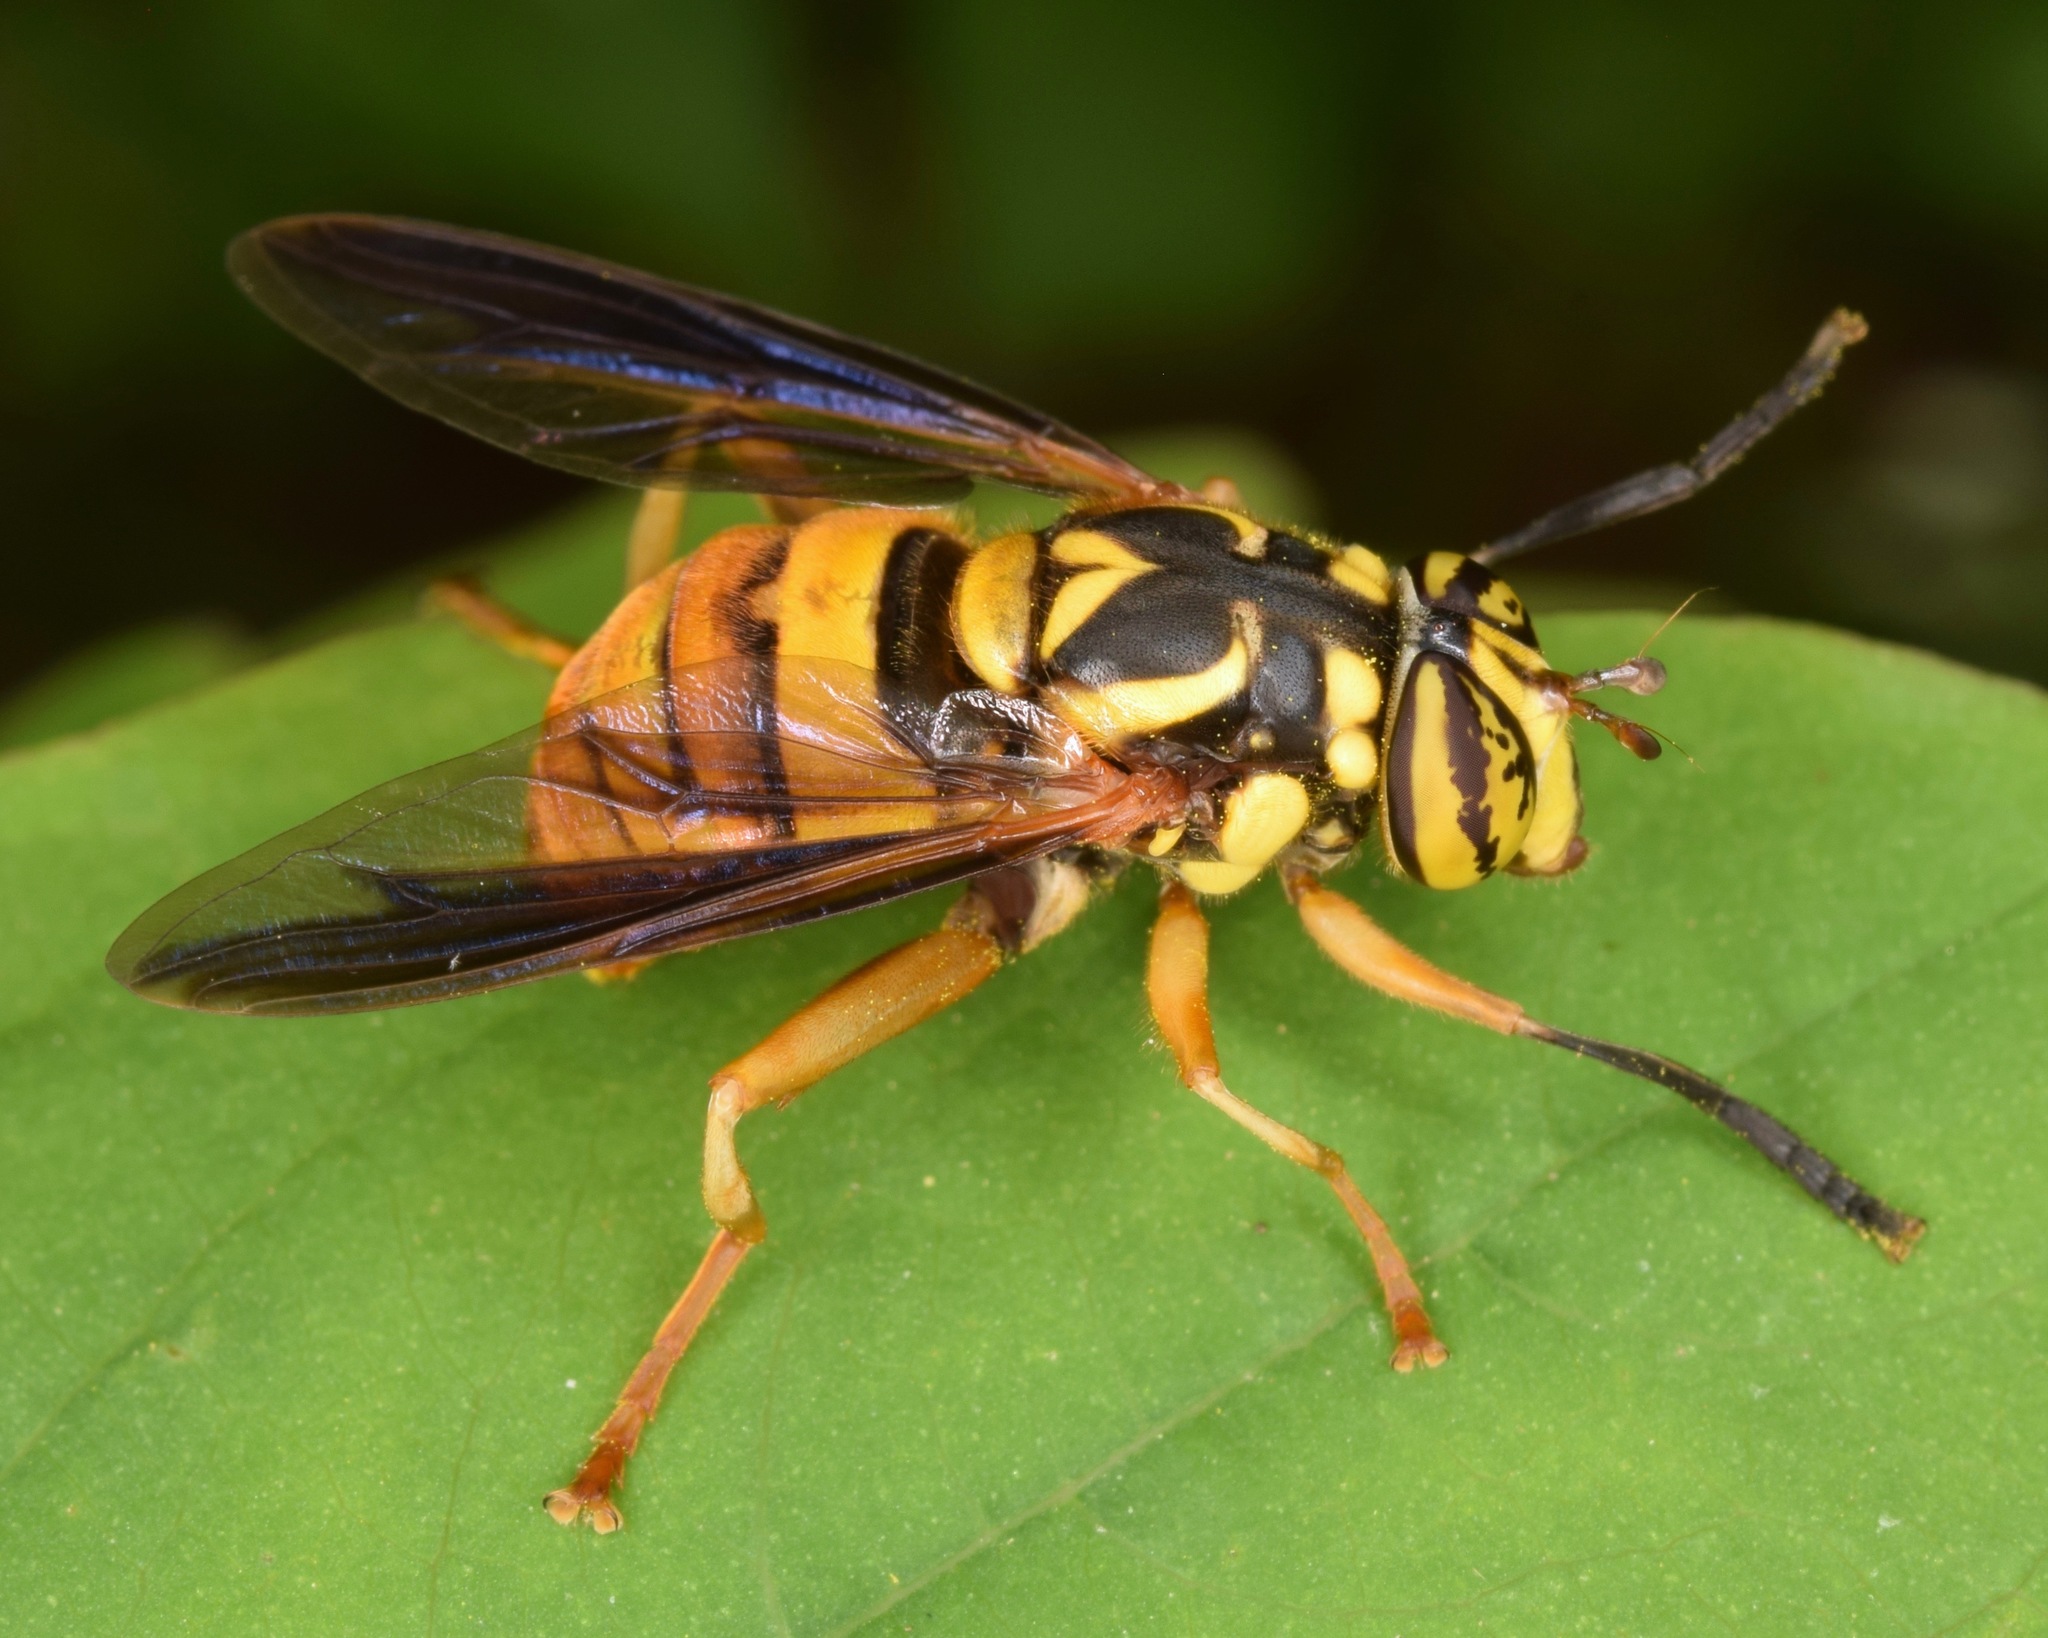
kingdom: Animalia
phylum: Arthropoda
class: Insecta
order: Diptera
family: Syrphidae
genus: Spilomyia
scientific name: Spilomyia alcimus
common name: Broad-banded hornet fly
